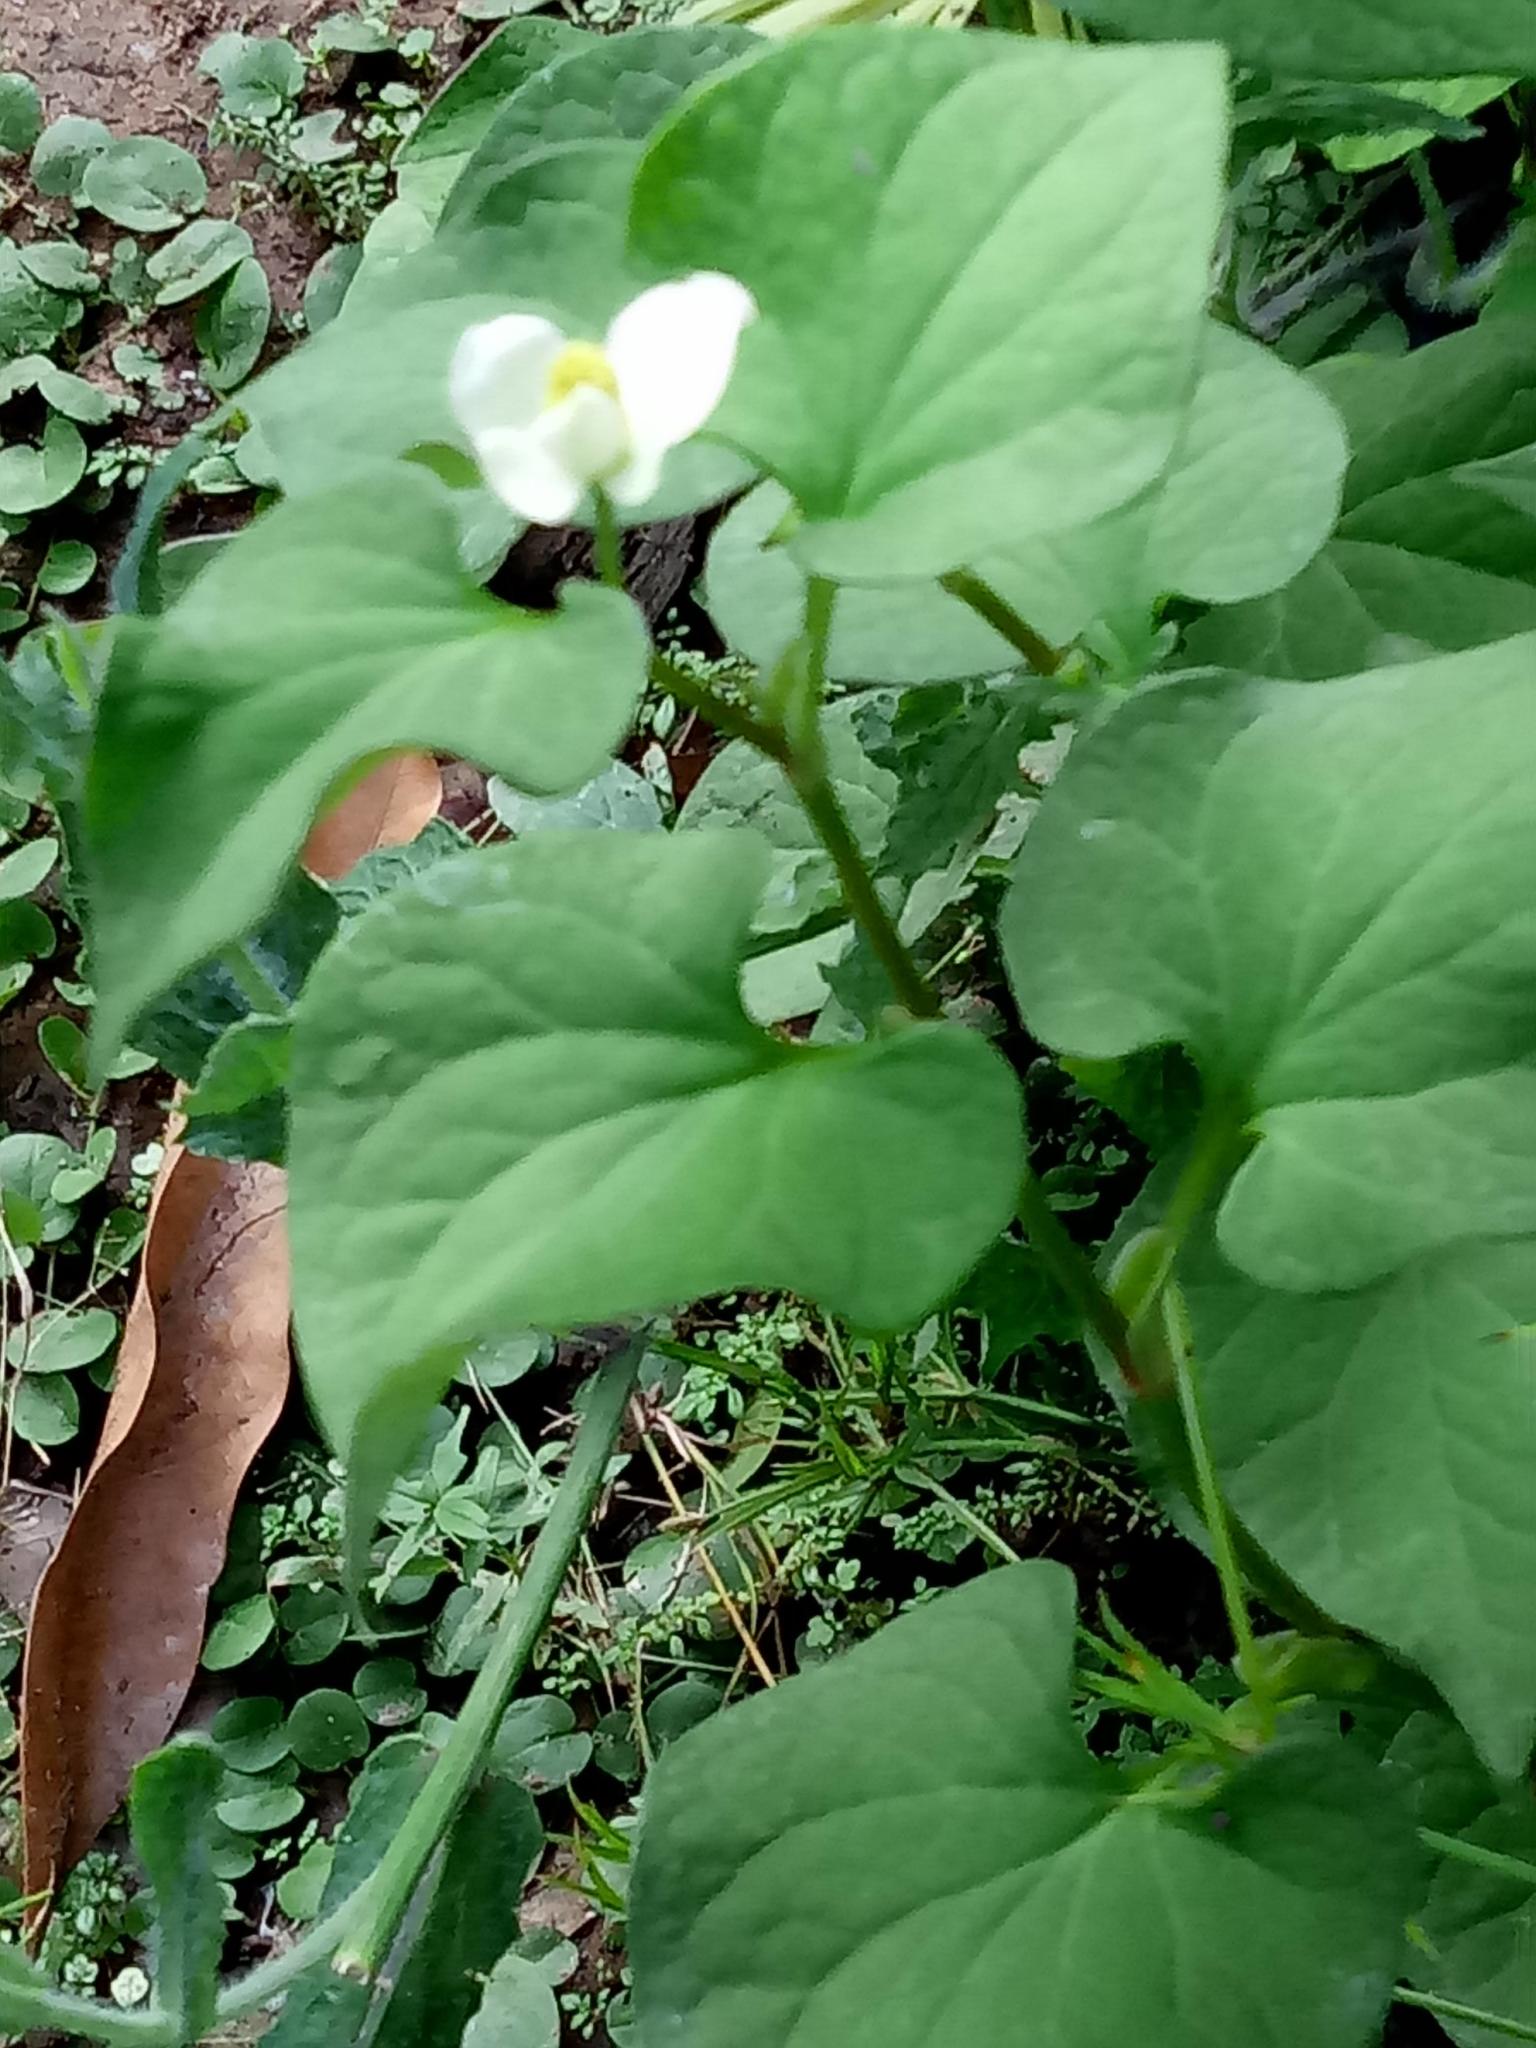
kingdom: Plantae
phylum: Tracheophyta
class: Magnoliopsida
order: Piperales
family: Saururaceae
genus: Houttuynia
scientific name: Houttuynia cordata
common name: Chameleon
